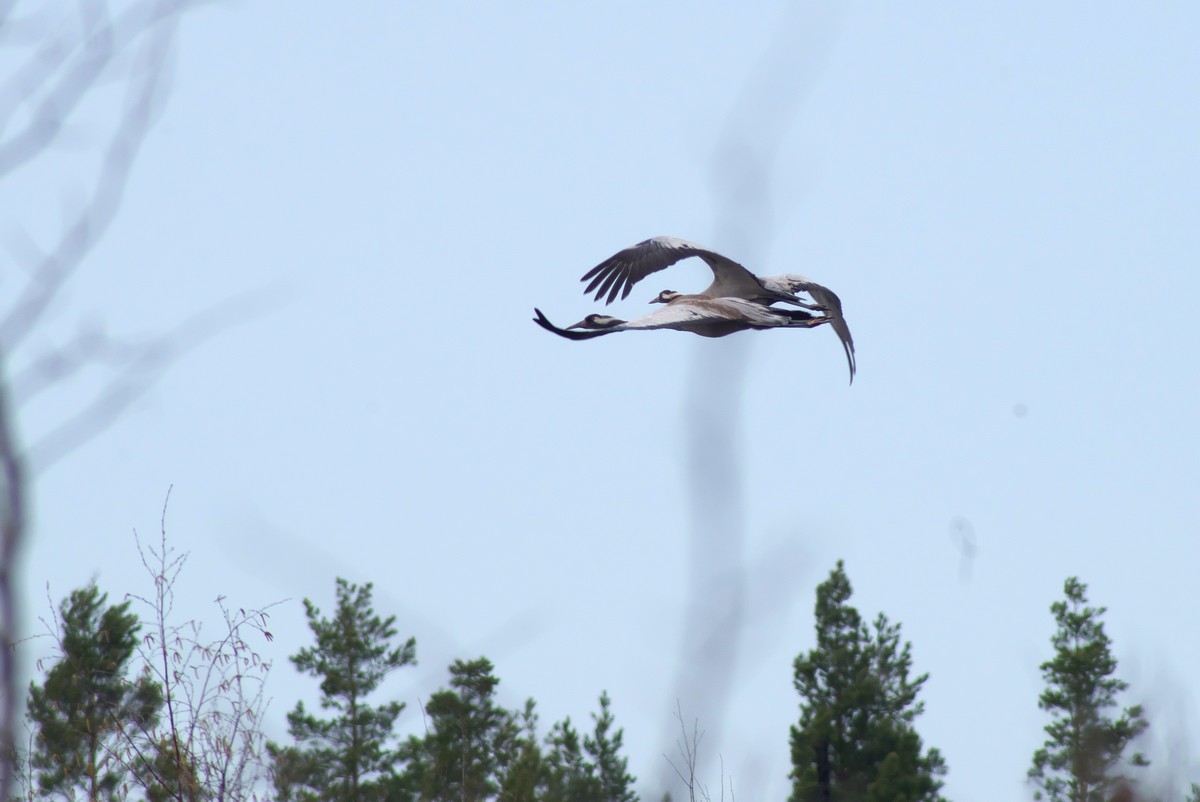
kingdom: Animalia
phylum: Chordata
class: Aves
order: Gruiformes
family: Gruidae
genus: Grus
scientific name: Grus grus
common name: Common crane
